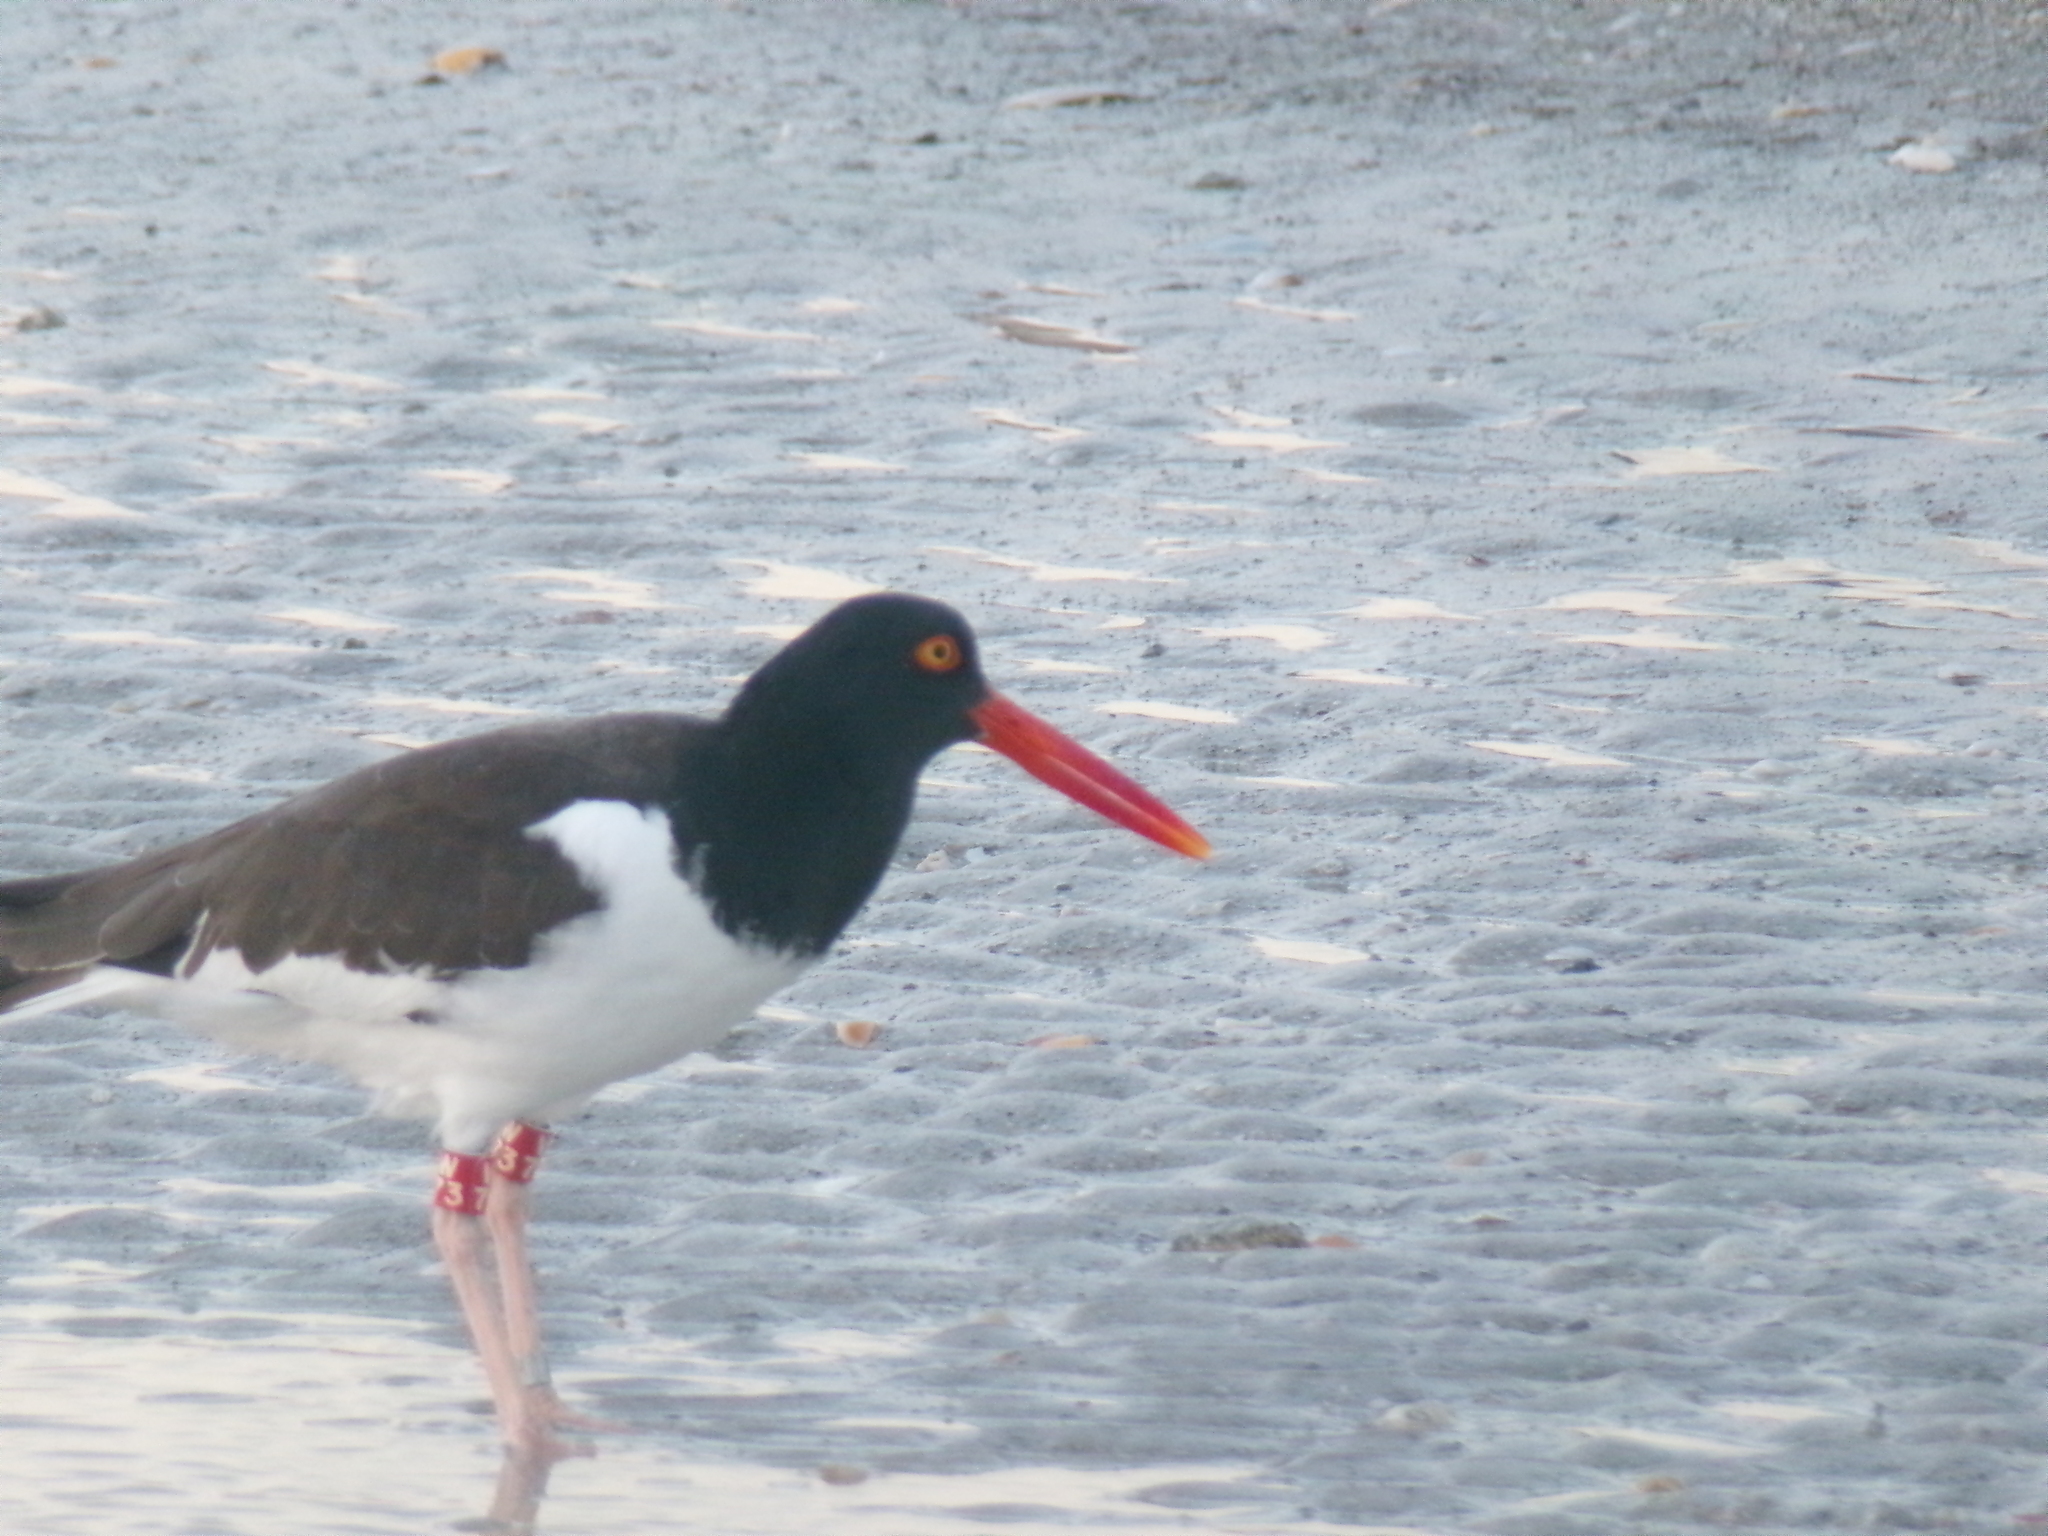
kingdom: Animalia
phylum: Chordata
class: Aves
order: Charadriiformes
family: Haematopodidae
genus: Haematopus
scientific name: Haematopus palliatus
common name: American oystercatcher
